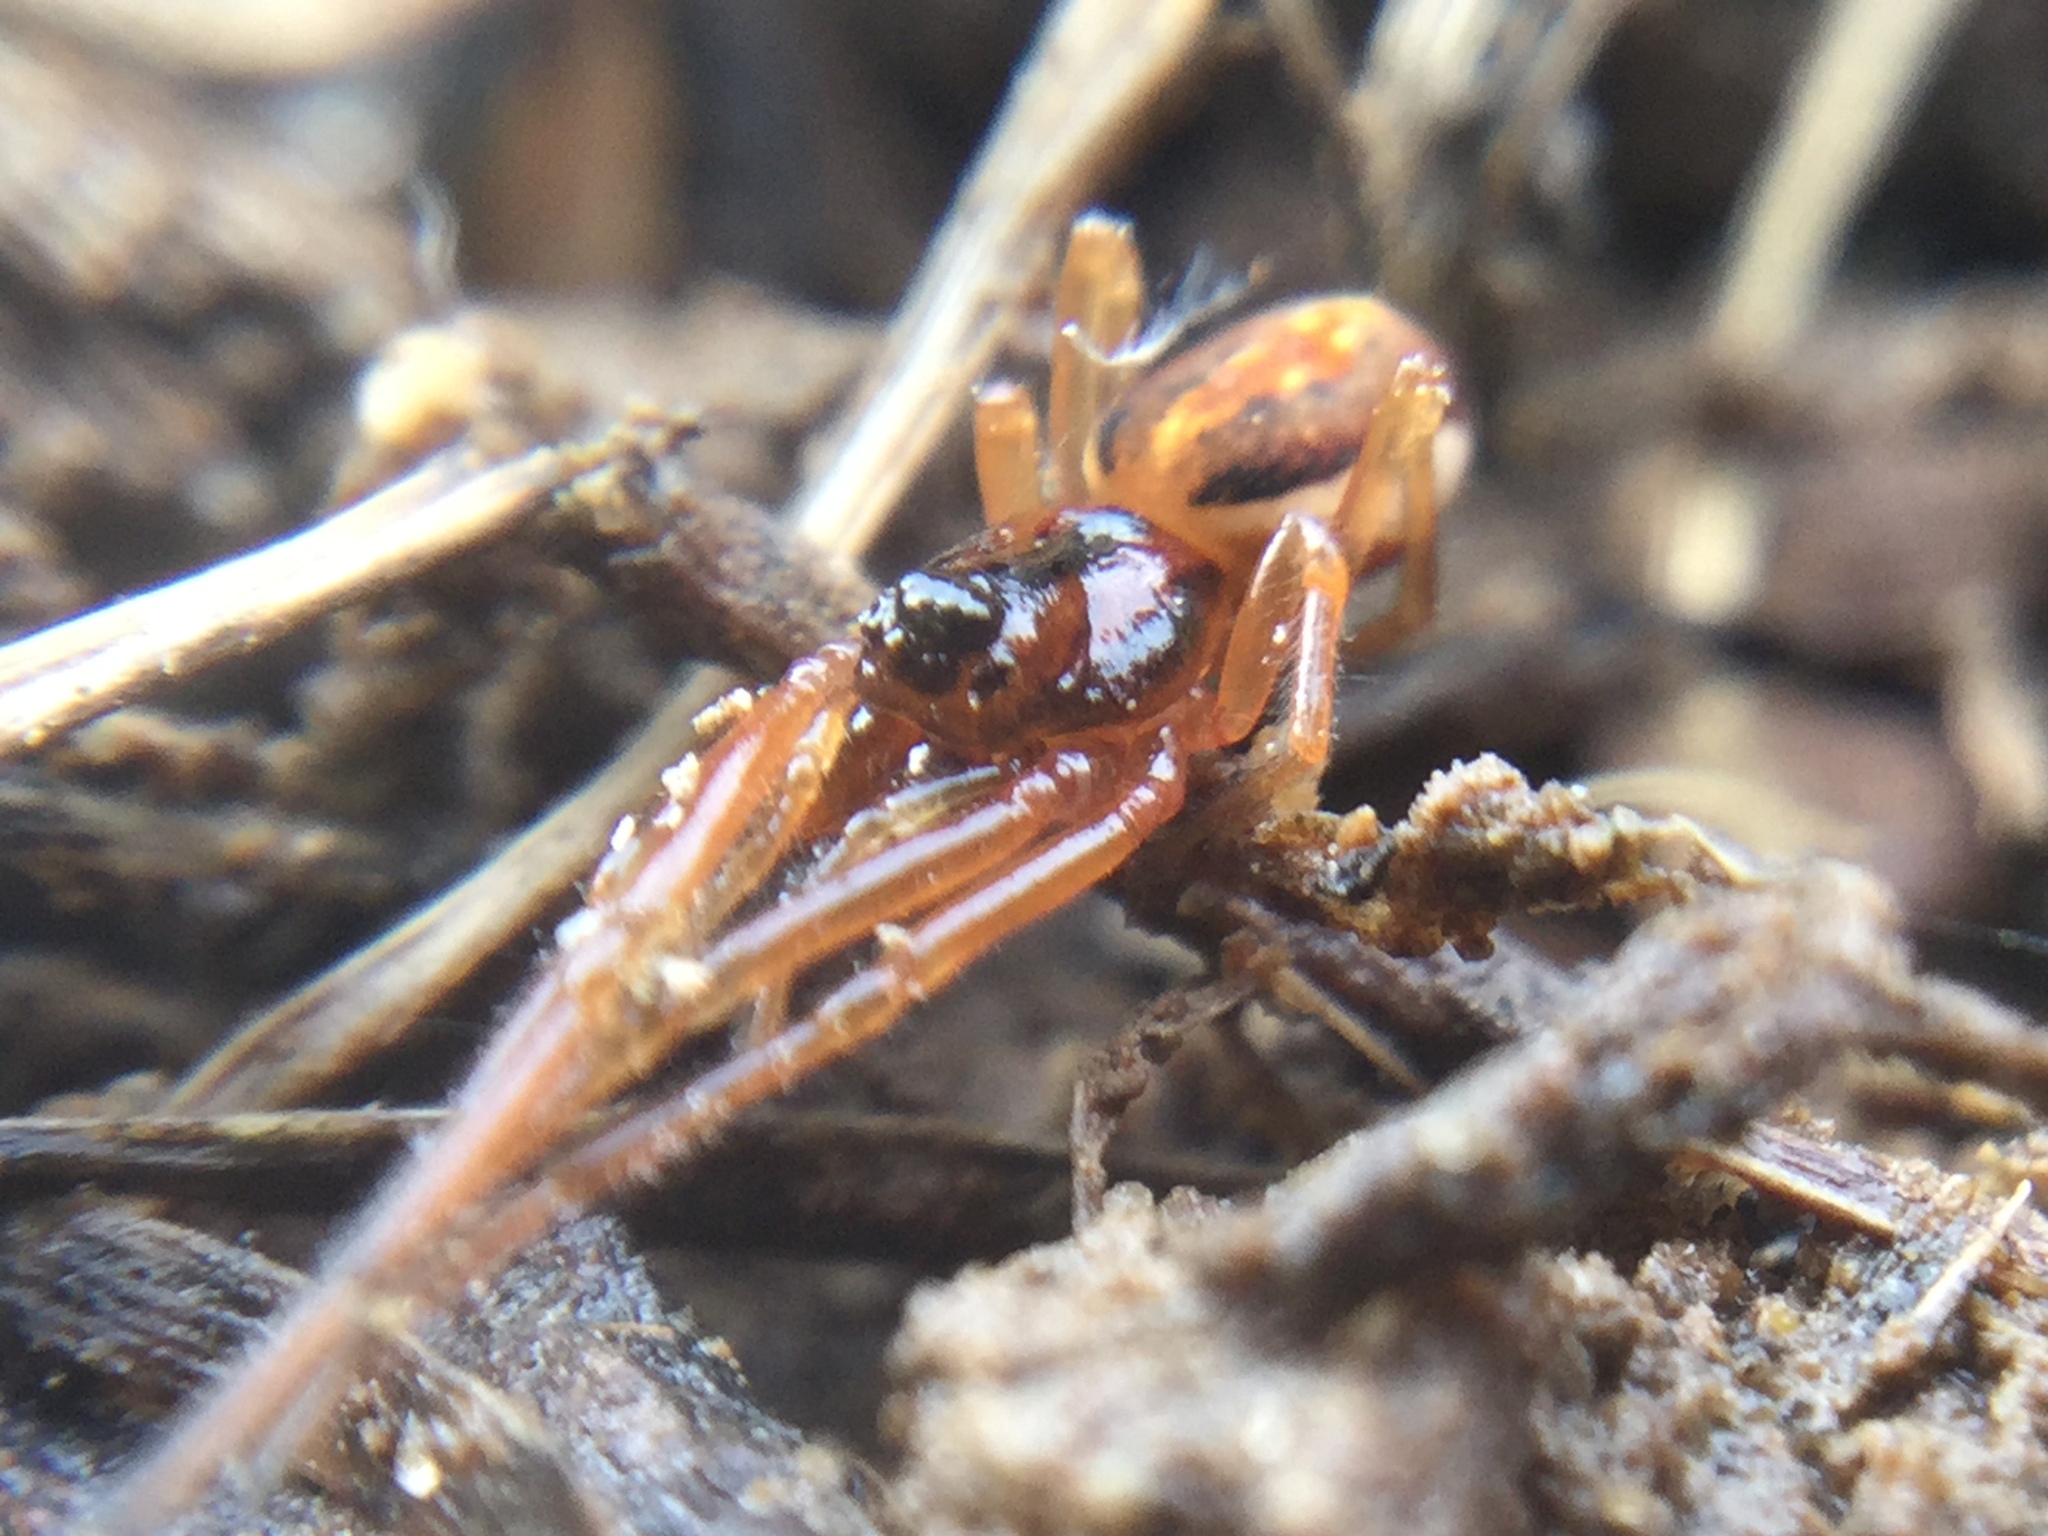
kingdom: Animalia
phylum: Arthropoda
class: Arachnida
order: Araneae
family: Tetragnathidae
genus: Pachygnatha
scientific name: Pachygnatha autumnalis
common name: Big-eyed thick-jawed spider
